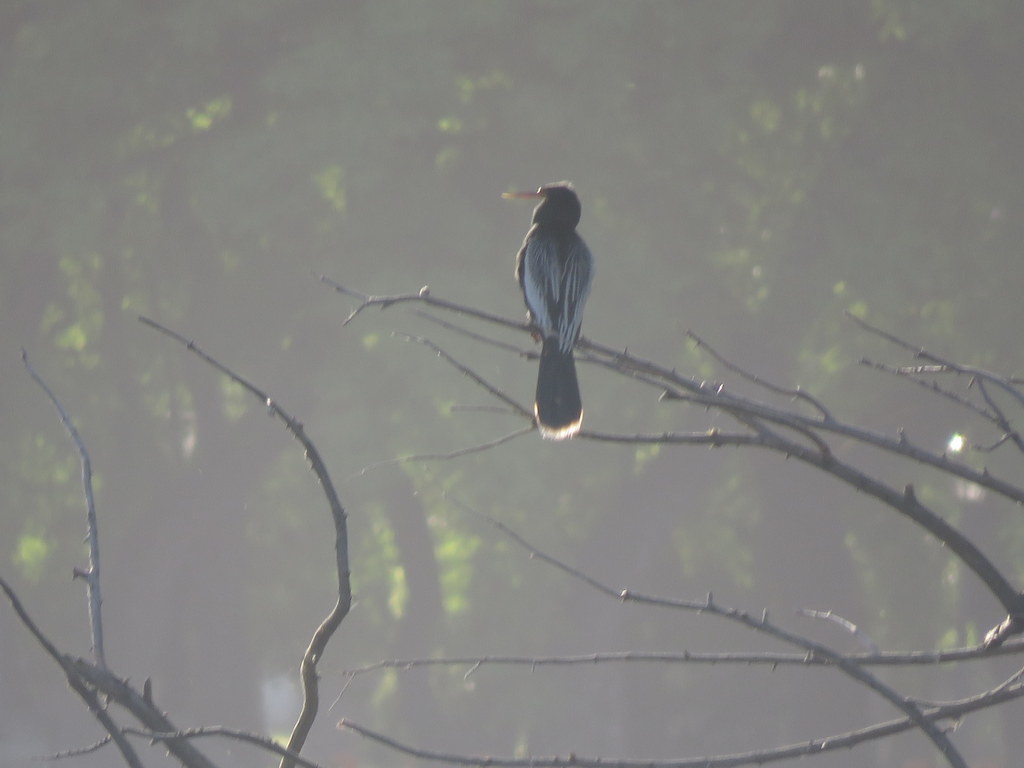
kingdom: Animalia
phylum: Chordata
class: Aves
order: Suliformes
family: Anhingidae
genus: Anhinga
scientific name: Anhinga anhinga
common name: Anhinga
